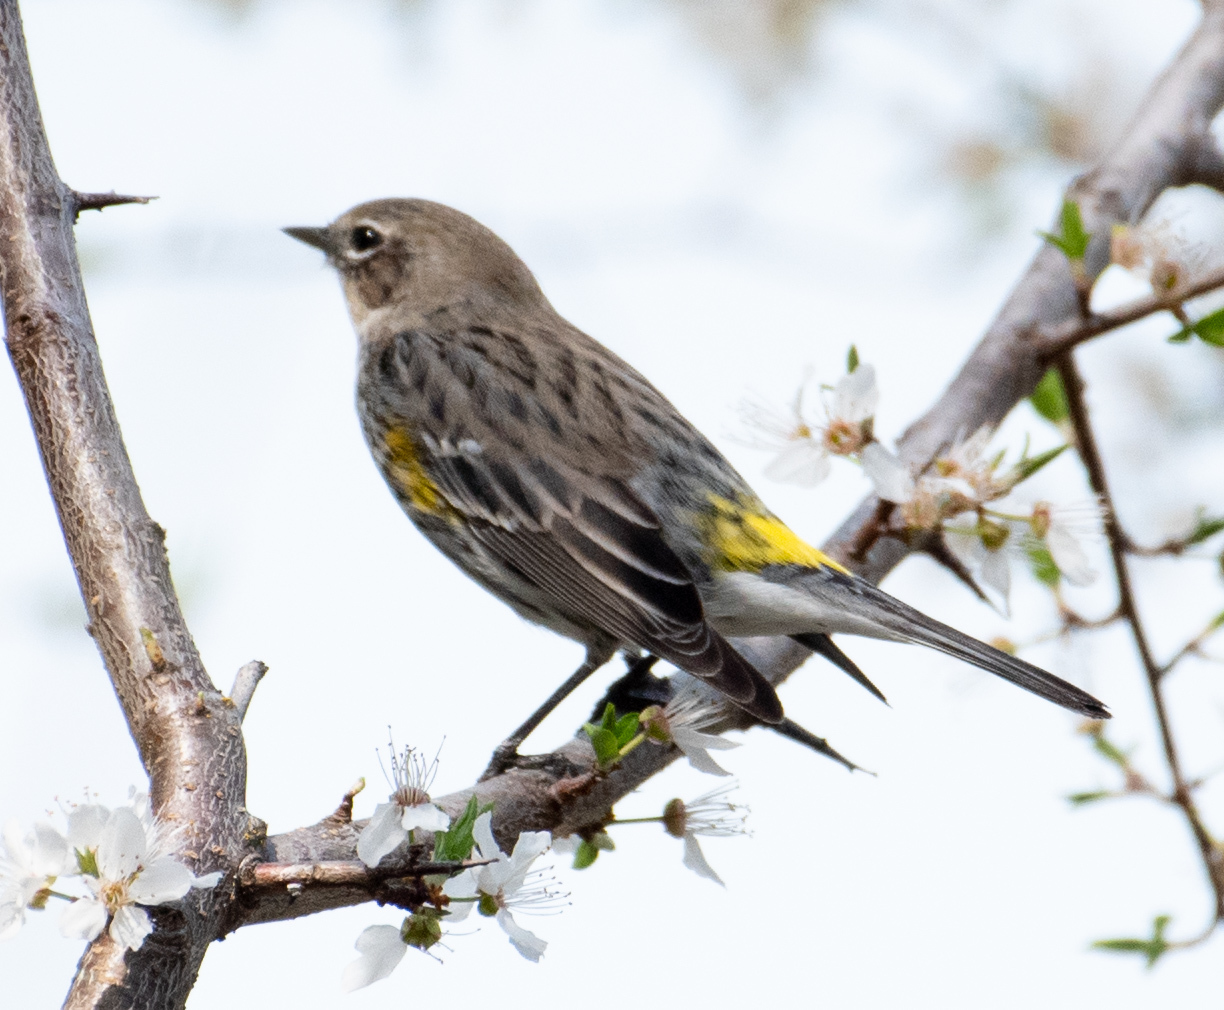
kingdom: Animalia
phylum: Chordata
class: Aves
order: Passeriformes
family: Parulidae
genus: Setophaga
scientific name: Setophaga coronata
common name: Myrtle warbler
